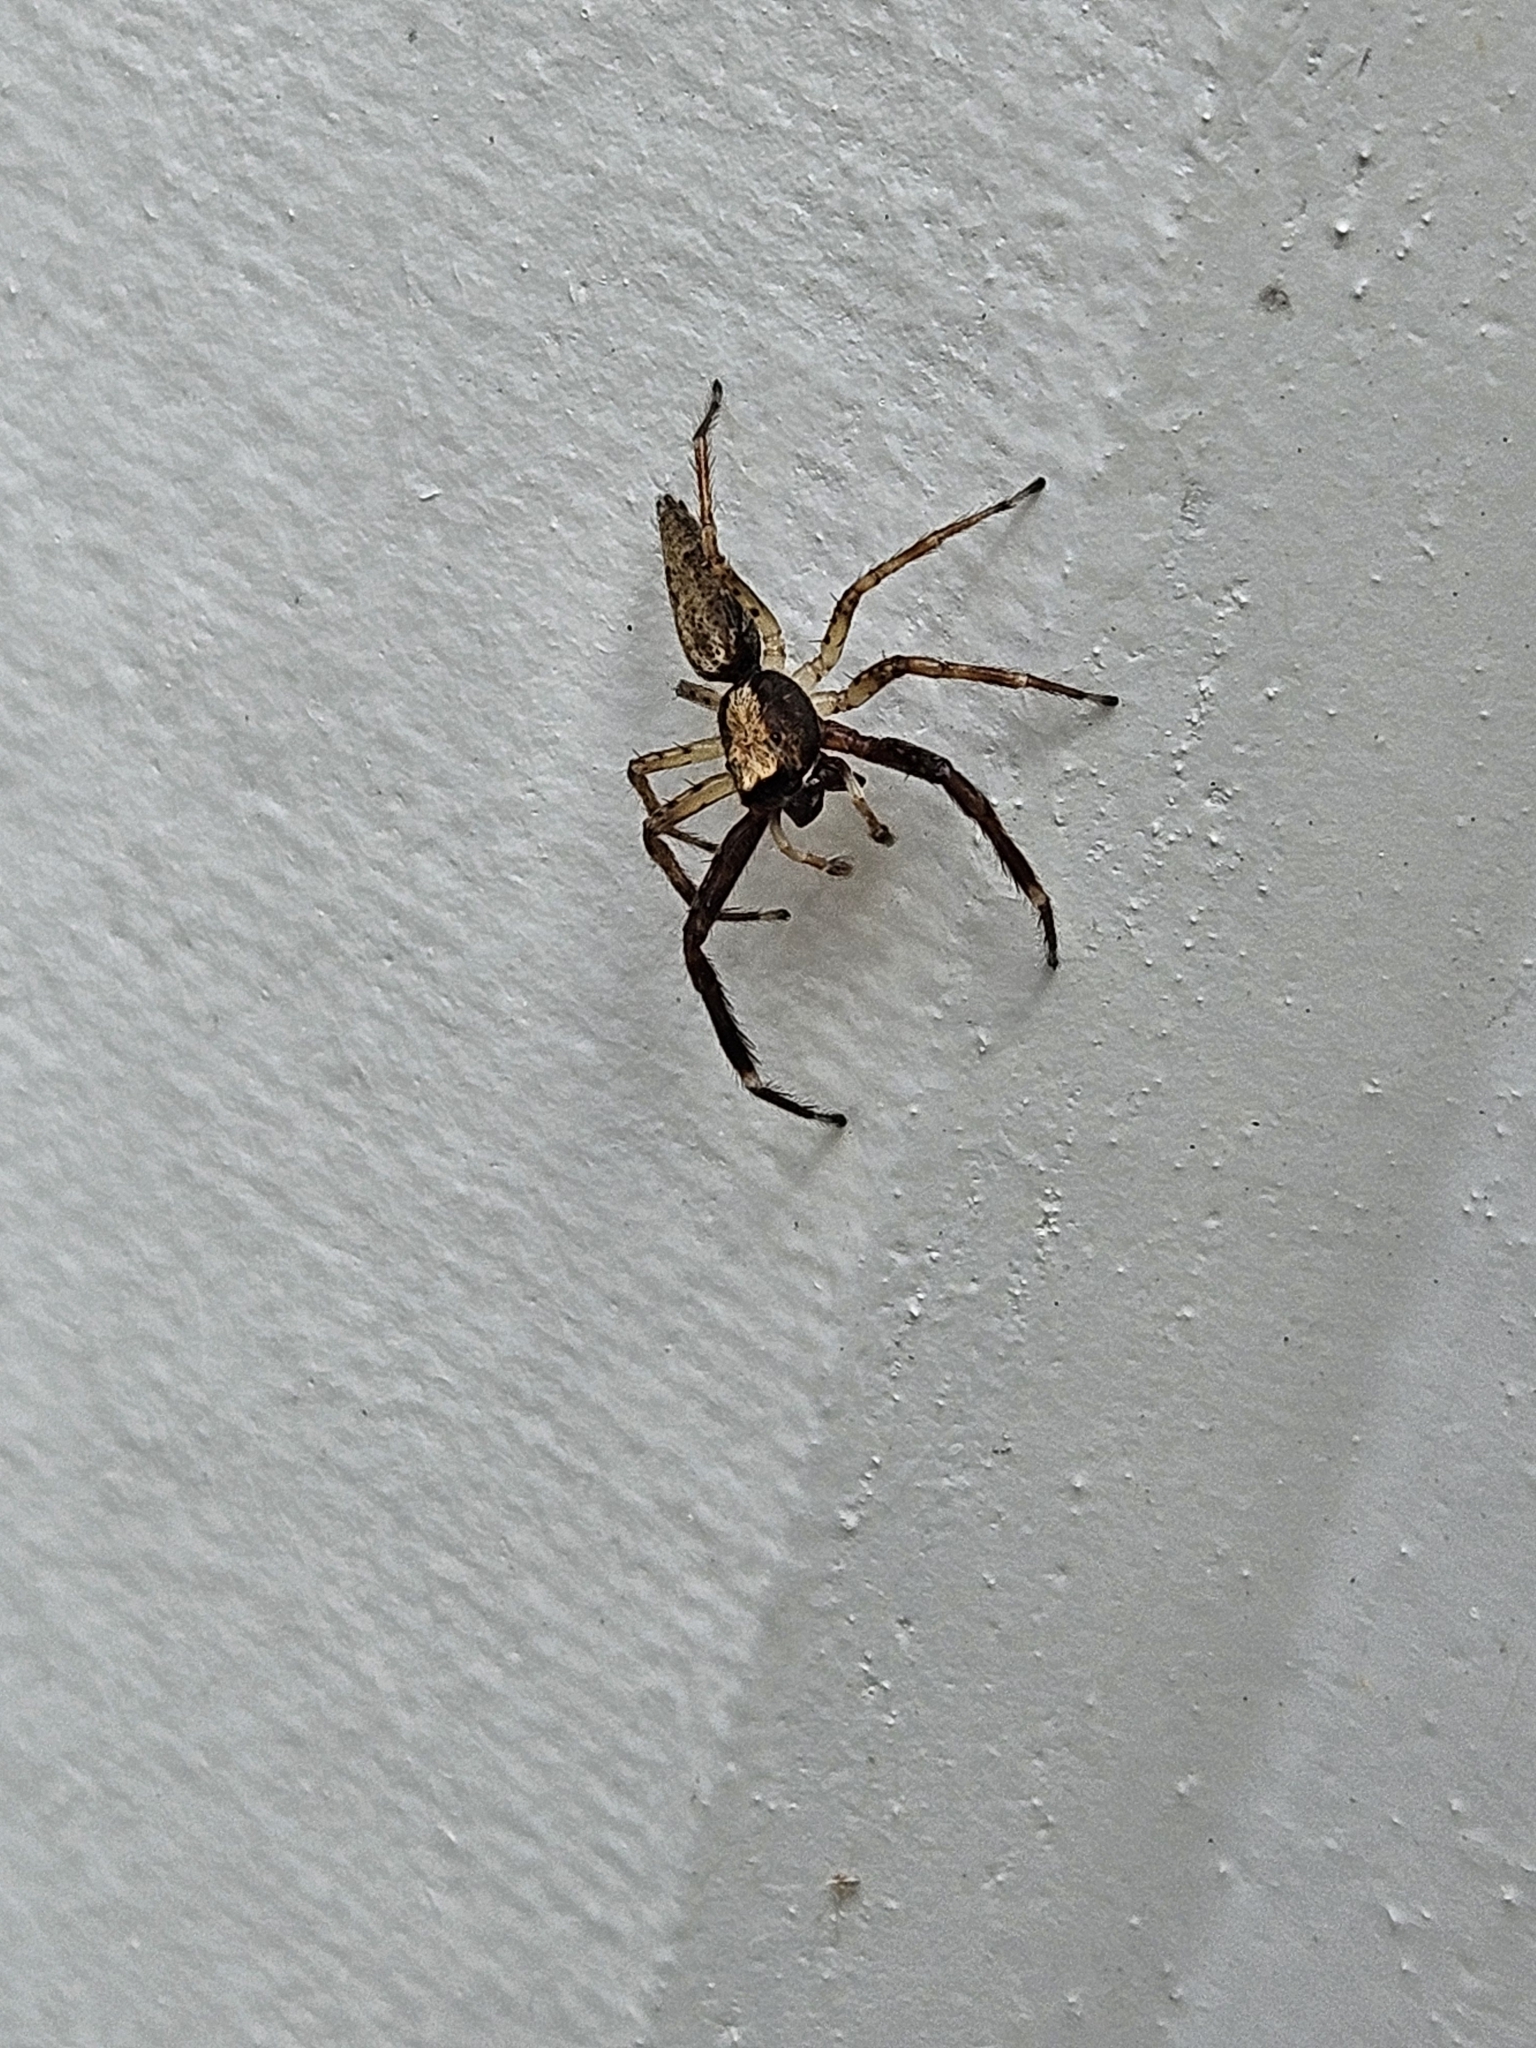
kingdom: Animalia
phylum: Arthropoda
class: Arachnida
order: Araneae
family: Salticidae
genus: Helpis
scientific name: Helpis minitabunda
